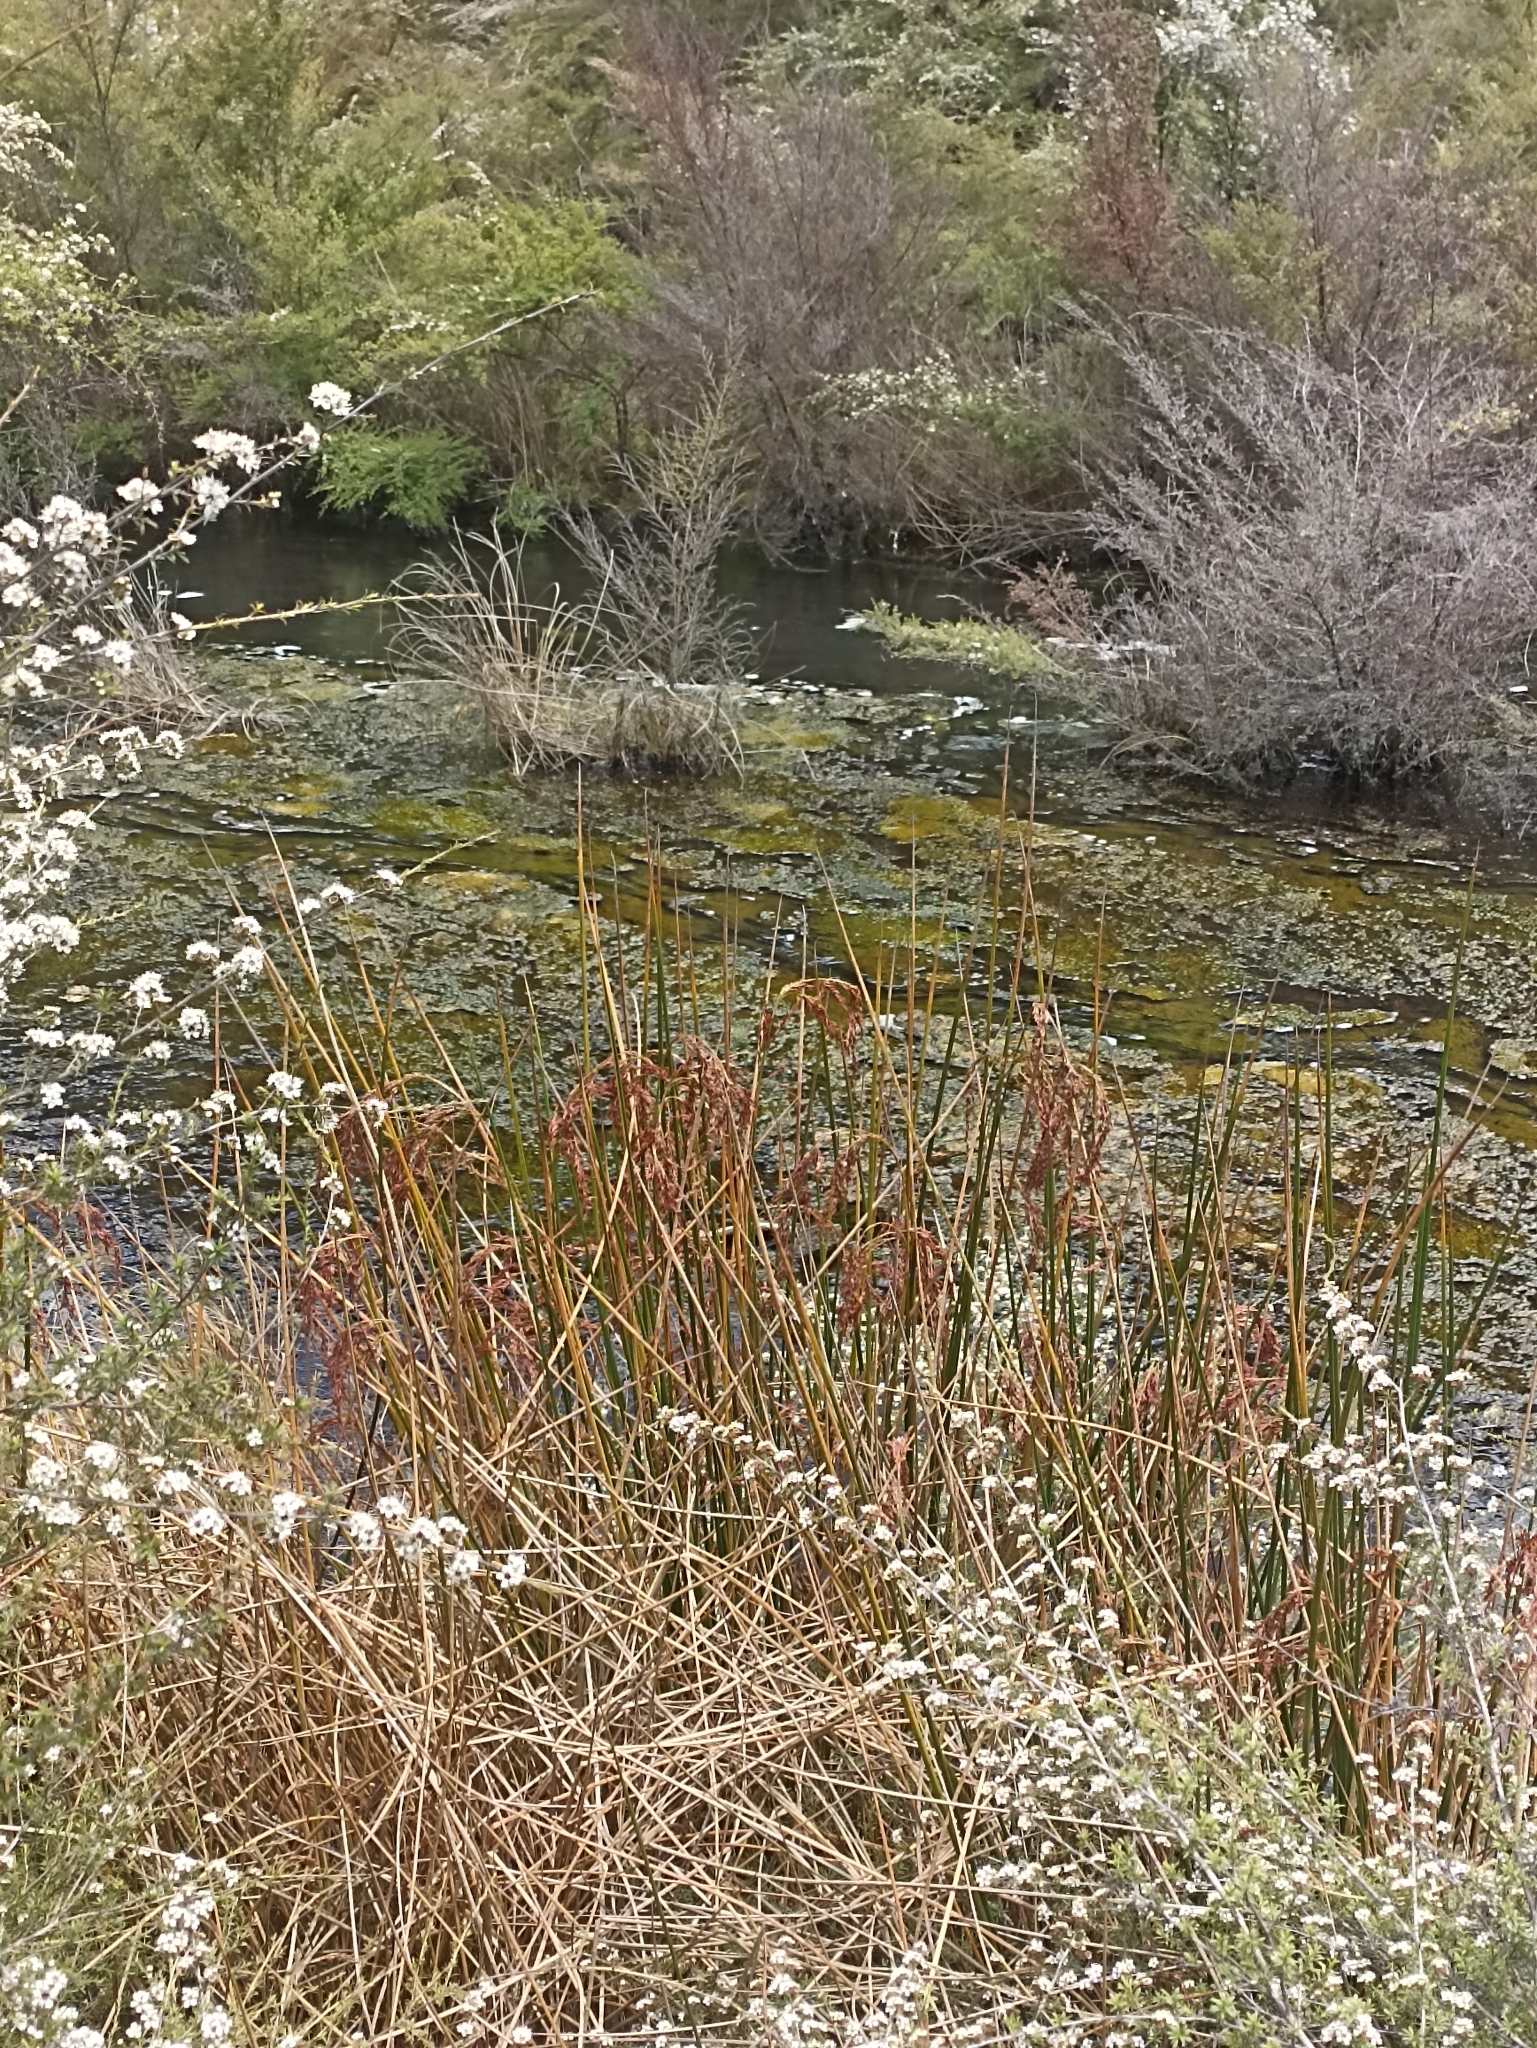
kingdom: Plantae
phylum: Tracheophyta
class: Liliopsida
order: Poales
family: Cyperaceae
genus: Machaerina
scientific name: Machaerina articulata
